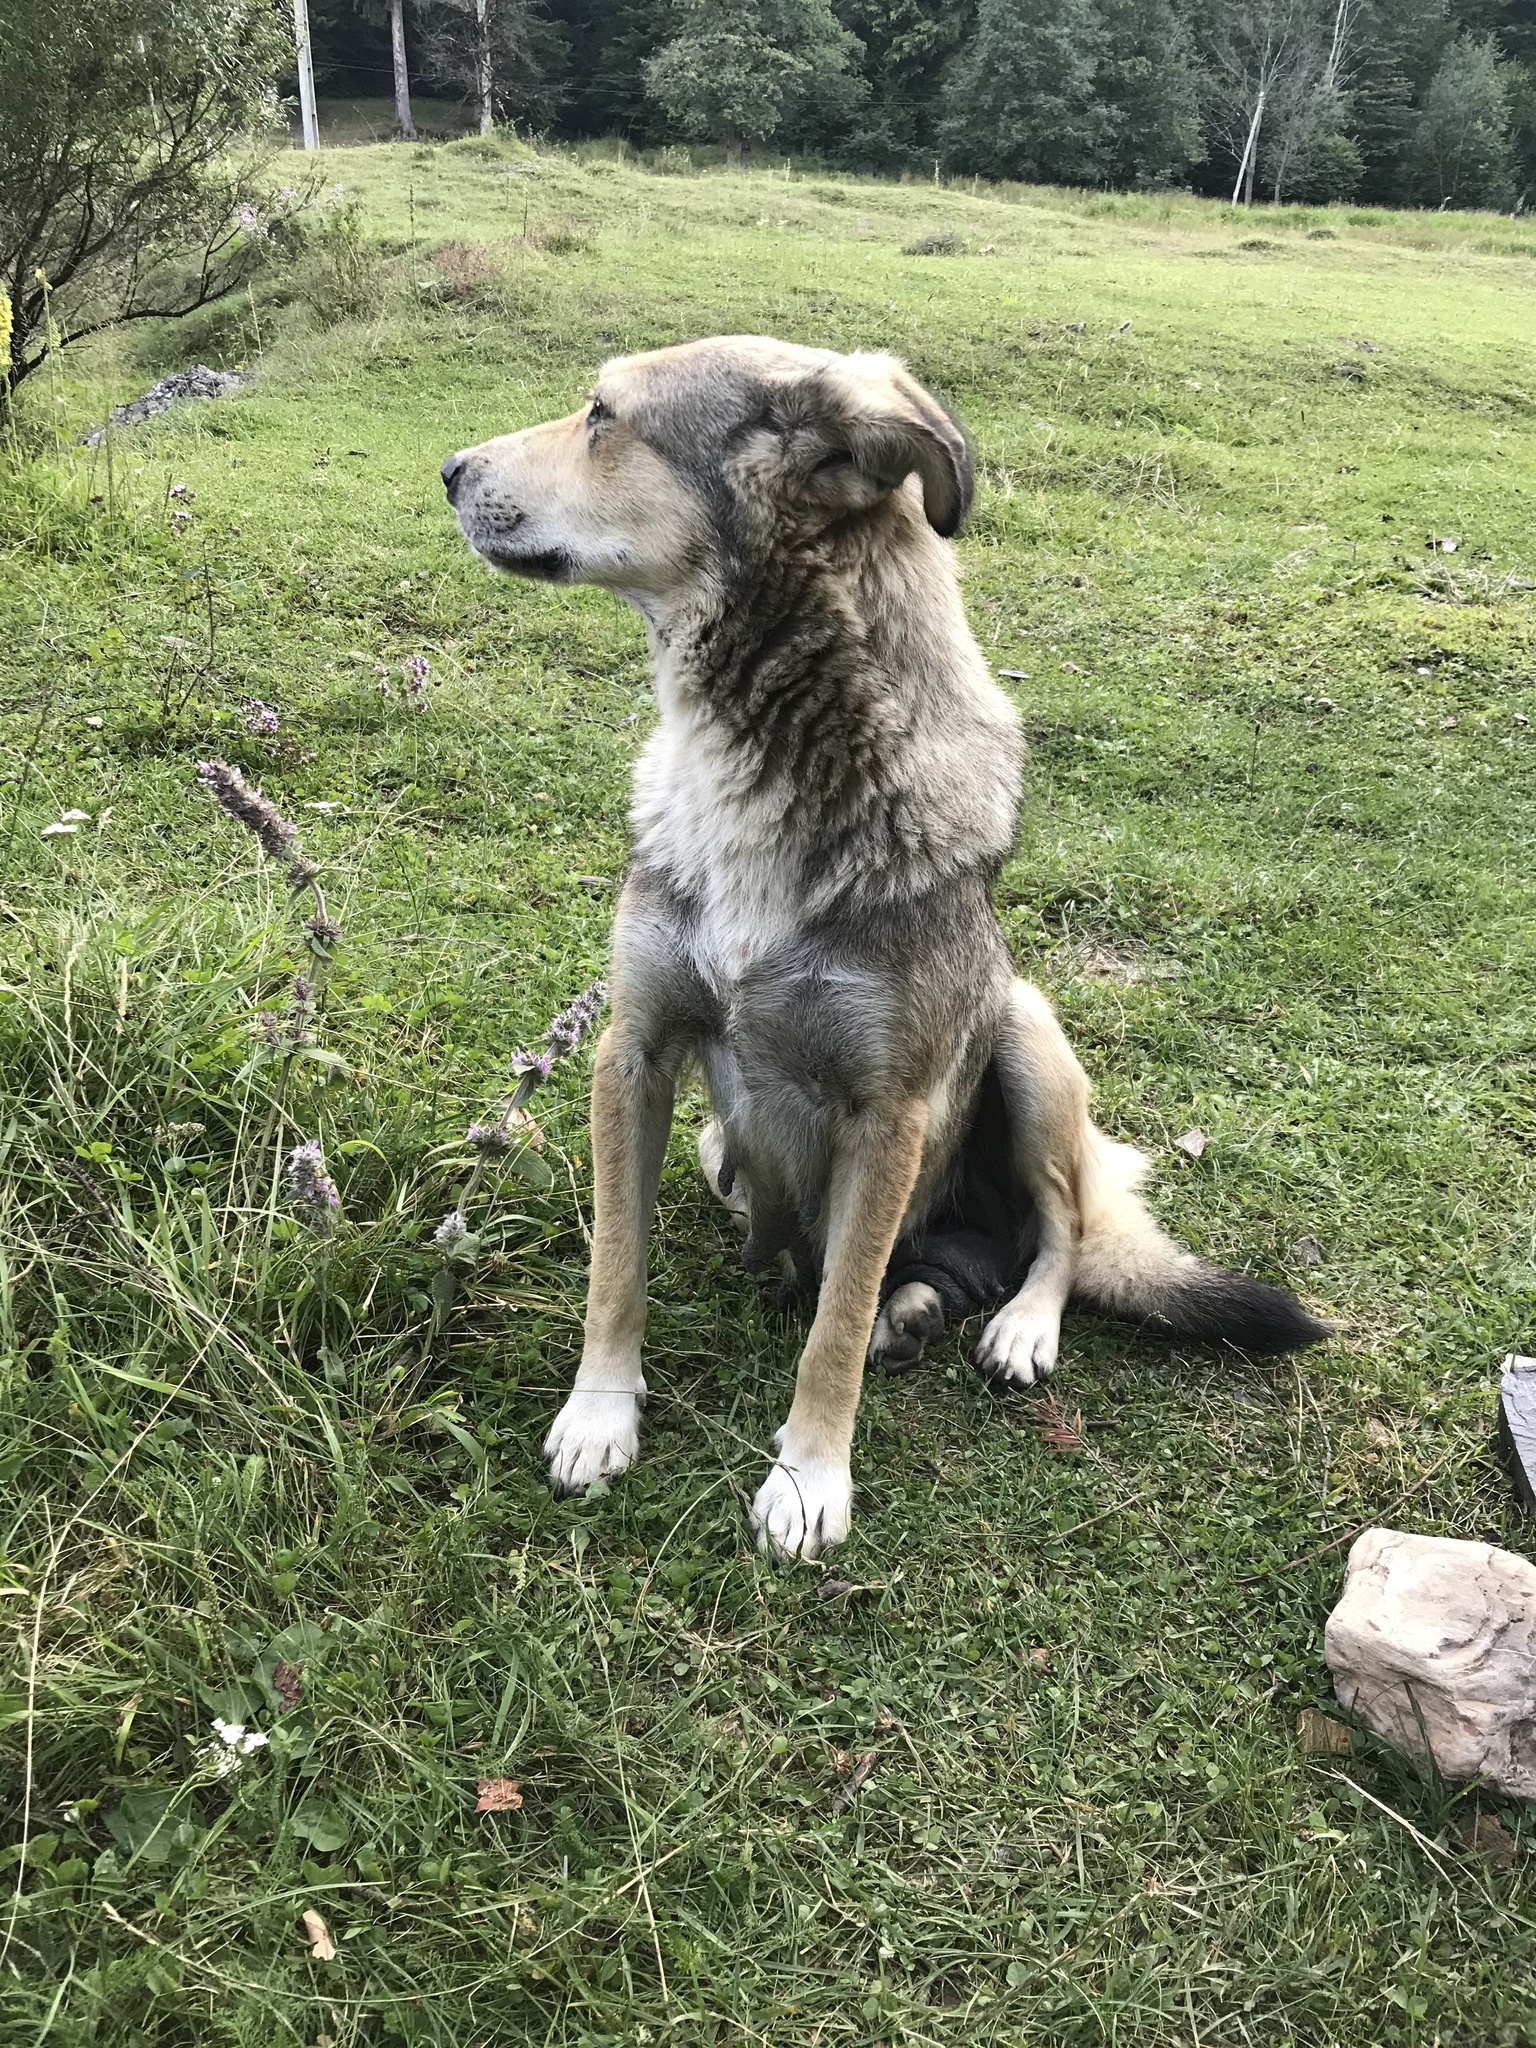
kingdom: Animalia
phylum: Chordata
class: Mammalia
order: Carnivora
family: Canidae
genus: Canis
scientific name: Canis lupus
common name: Gray wolf
